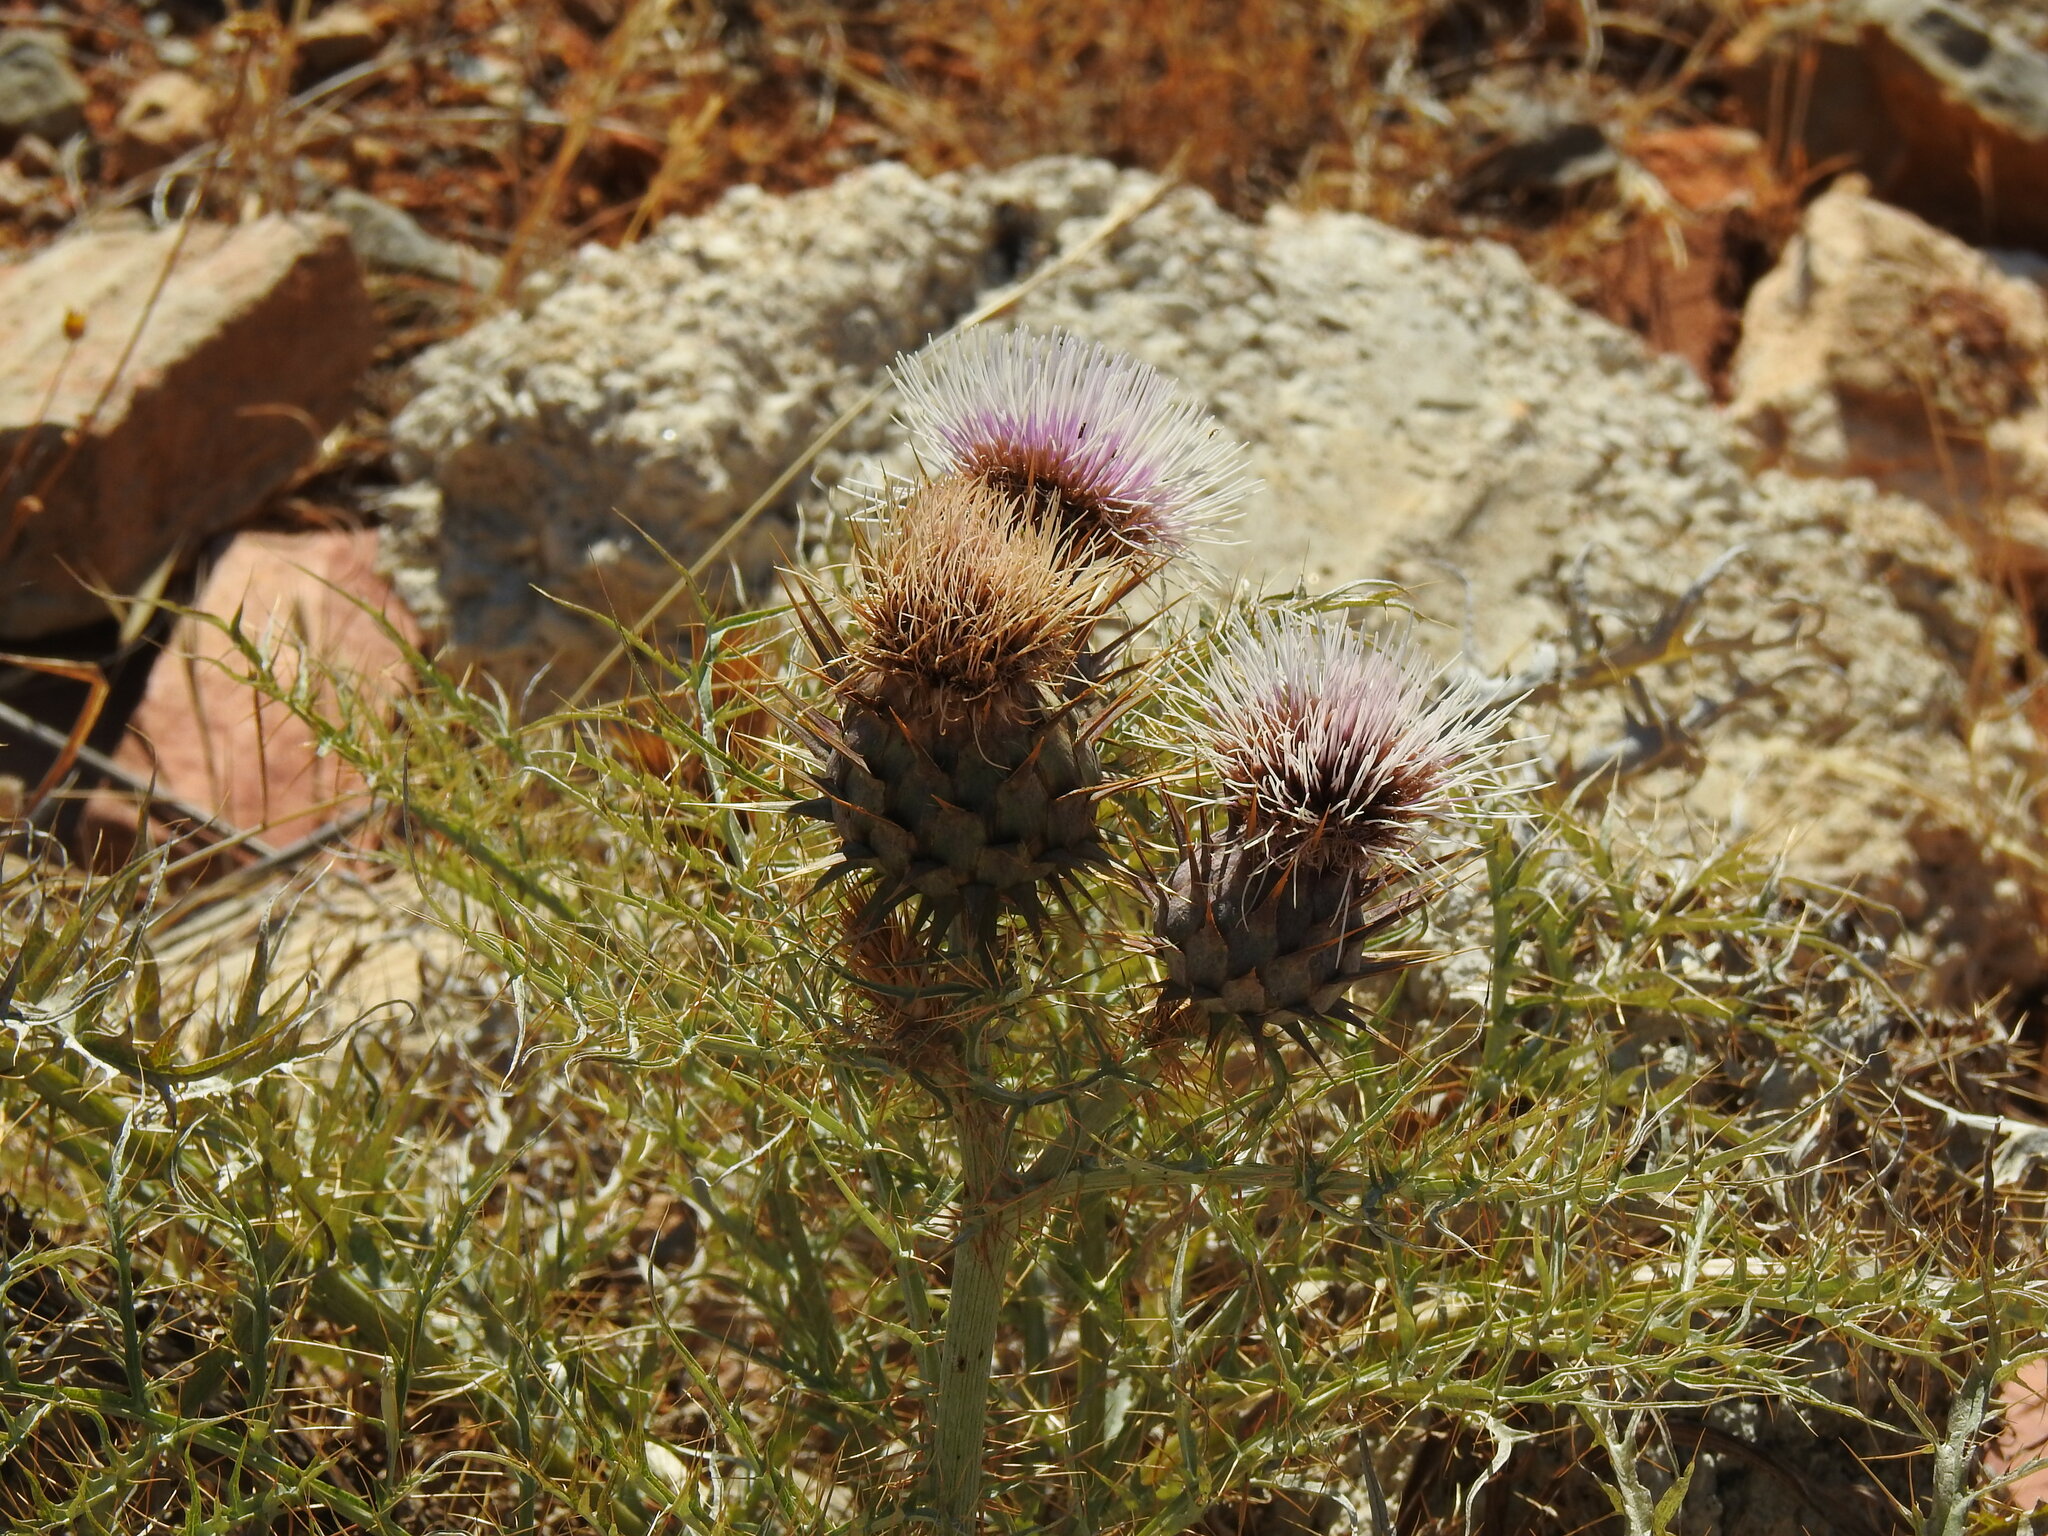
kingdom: Plantae
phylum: Tracheophyta
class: Magnoliopsida
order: Asterales
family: Asteraceae
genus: Cynara
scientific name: Cynara cardunculus
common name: Globe artichoke
